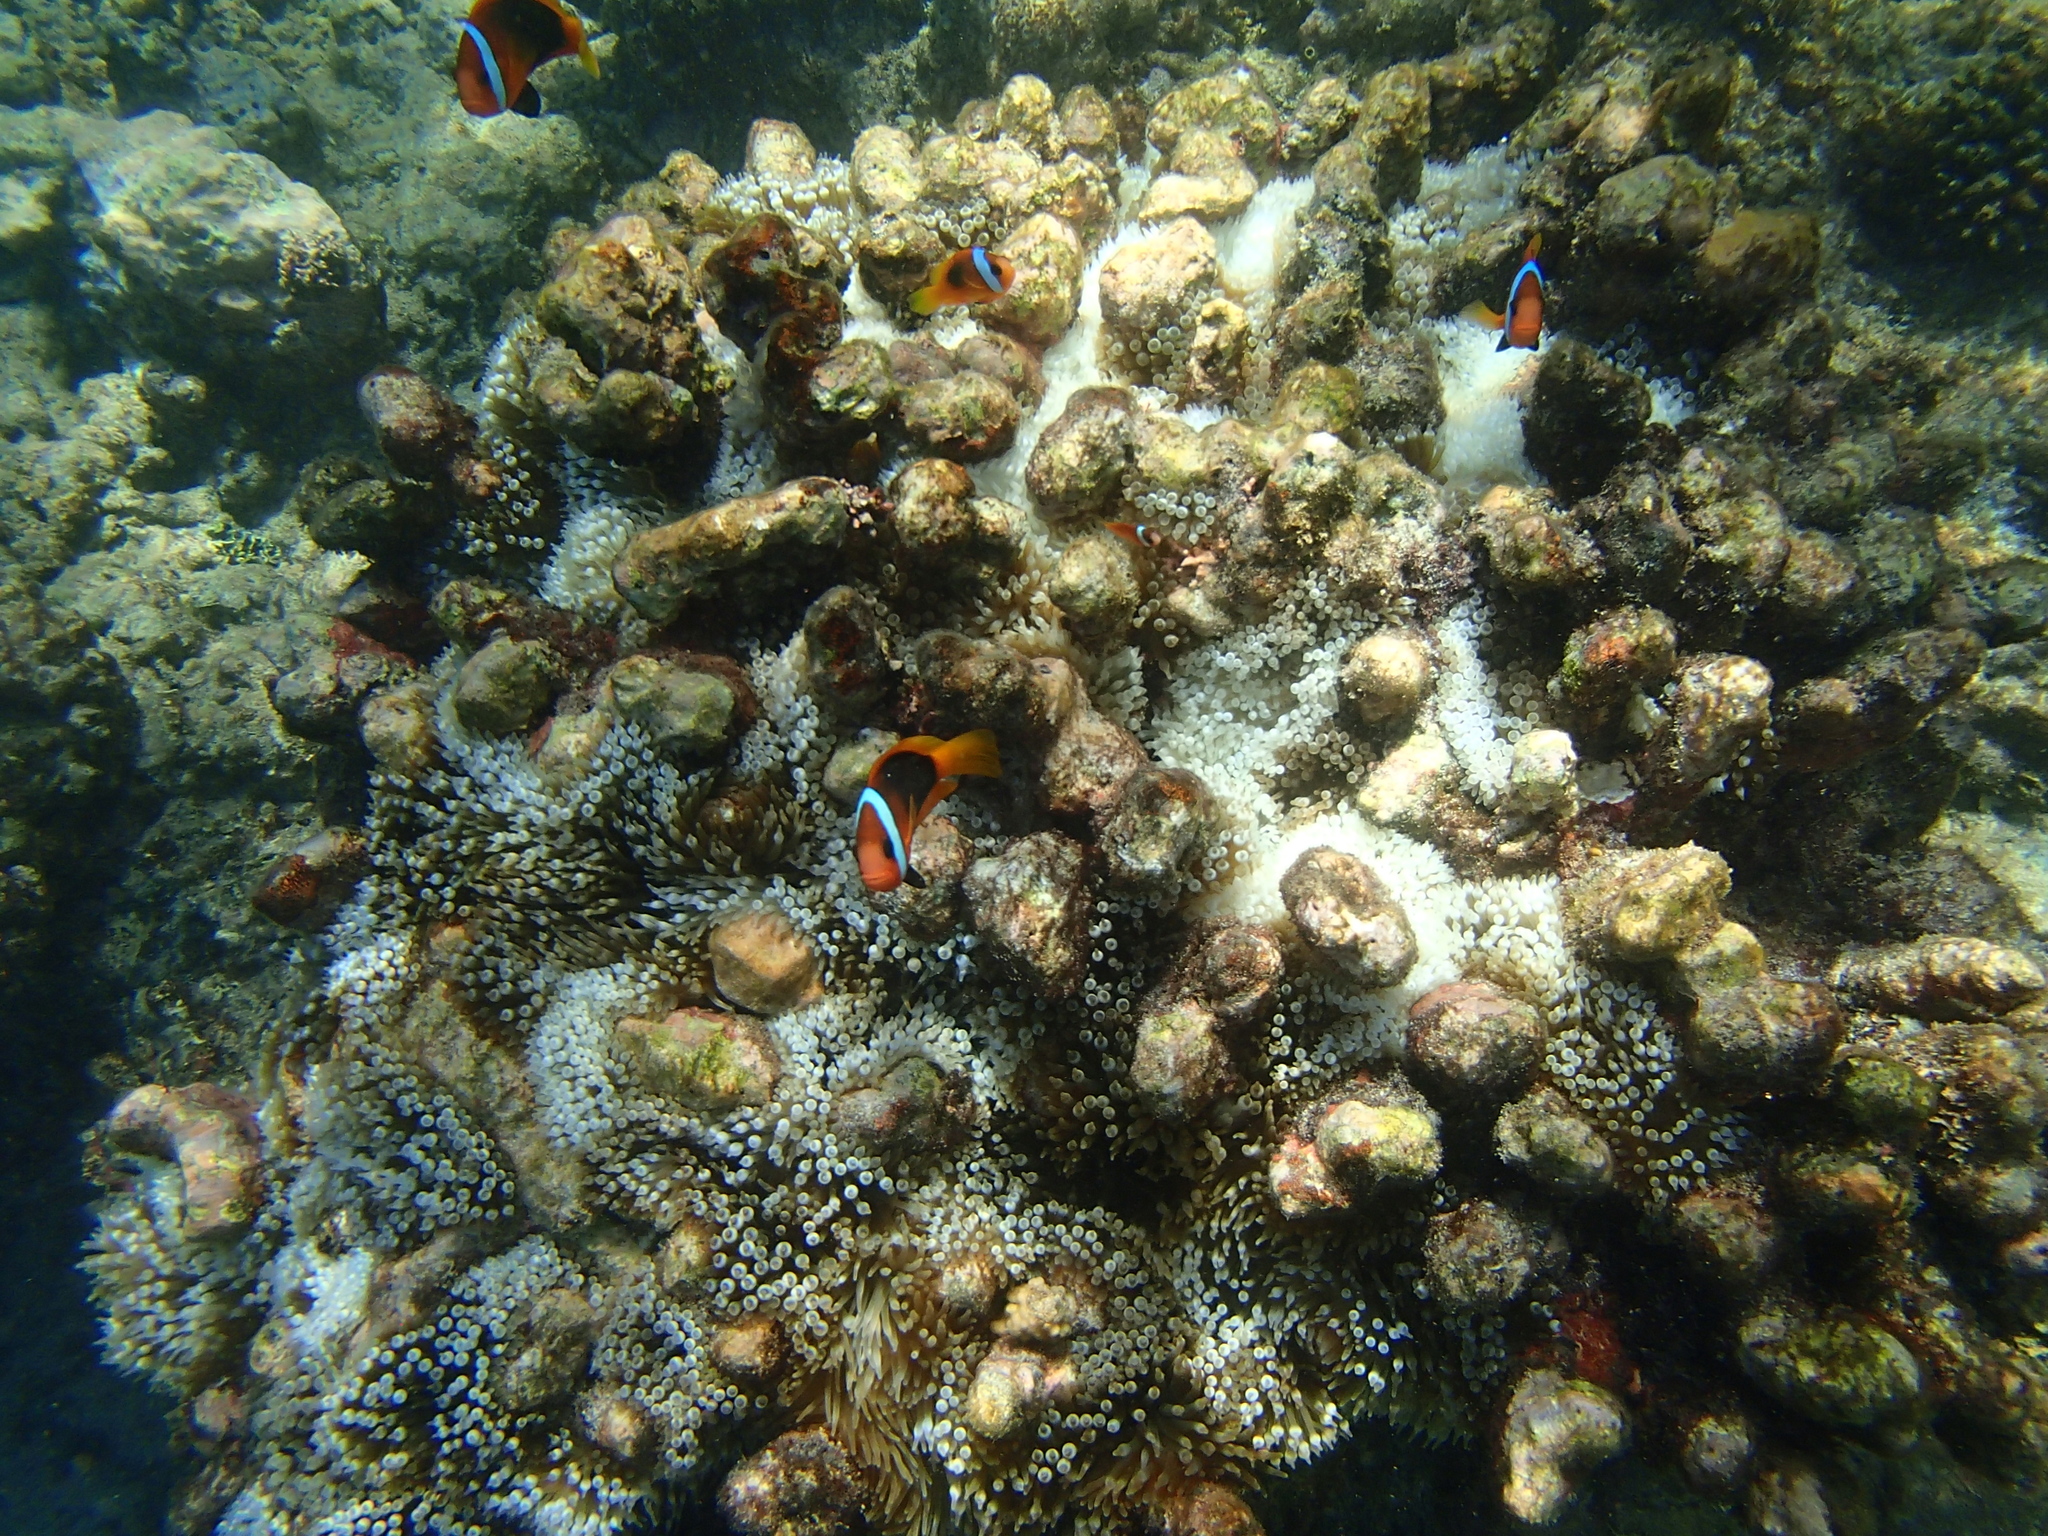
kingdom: Animalia
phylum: Chordata
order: Perciformes
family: Pomacentridae
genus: Amphiprion
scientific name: Amphiprion melanopus
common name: Black anemonefish
